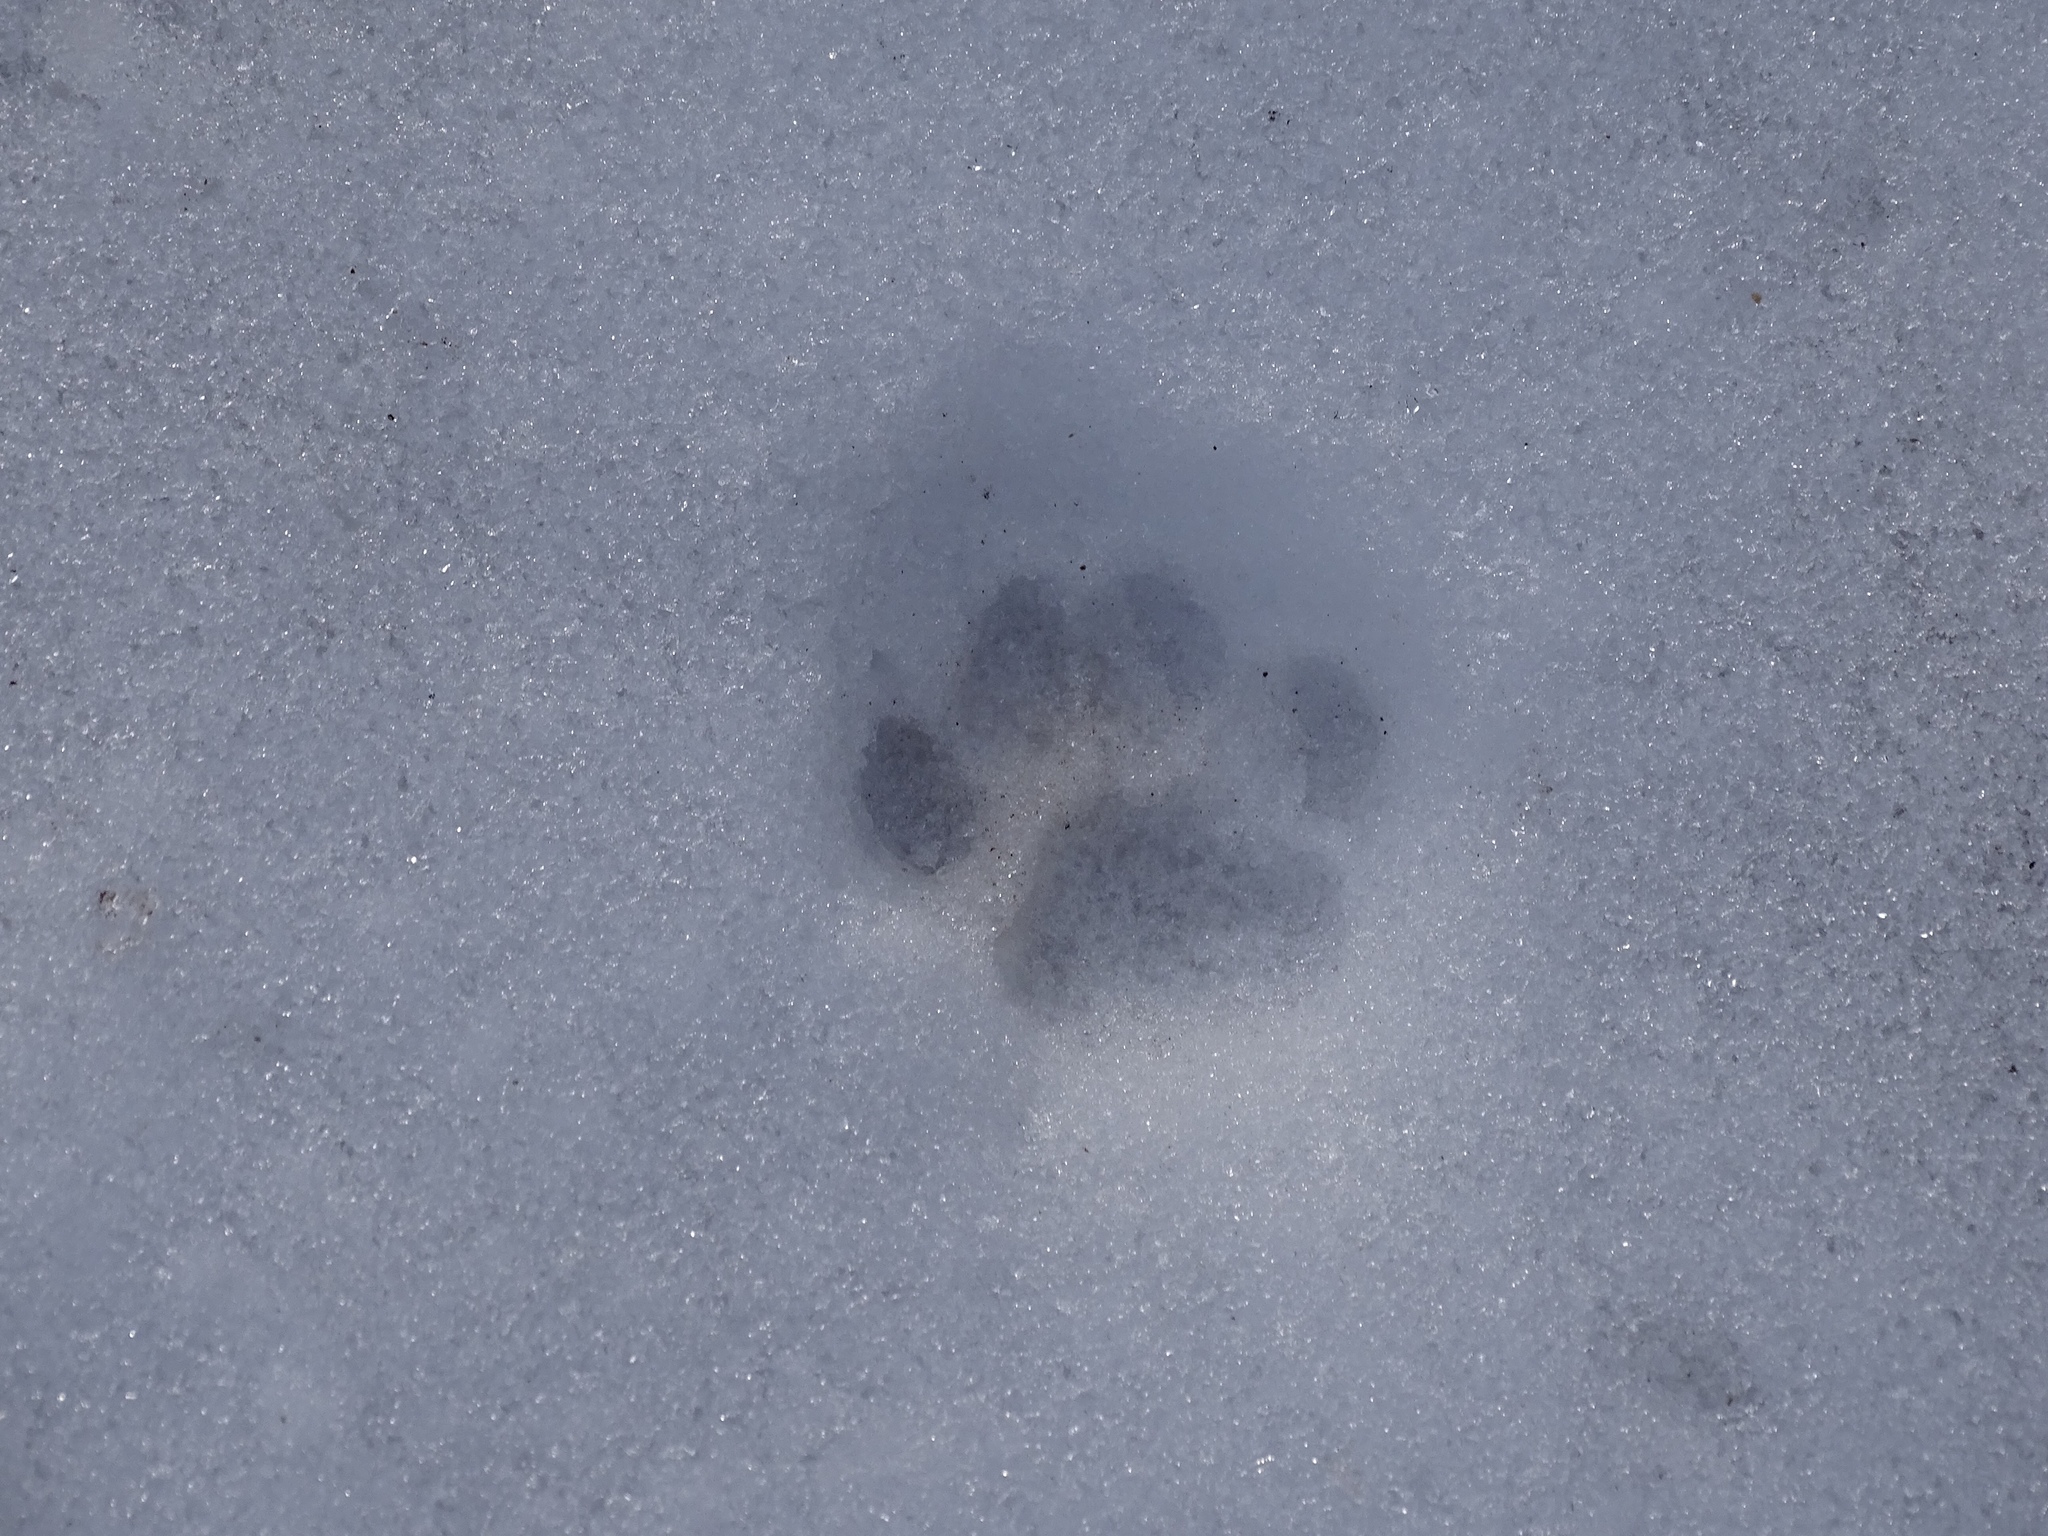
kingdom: Animalia
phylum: Chordata
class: Mammalia
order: Carnivora
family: Felidae
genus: Felis
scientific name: Felis catus
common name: Domestic cat
